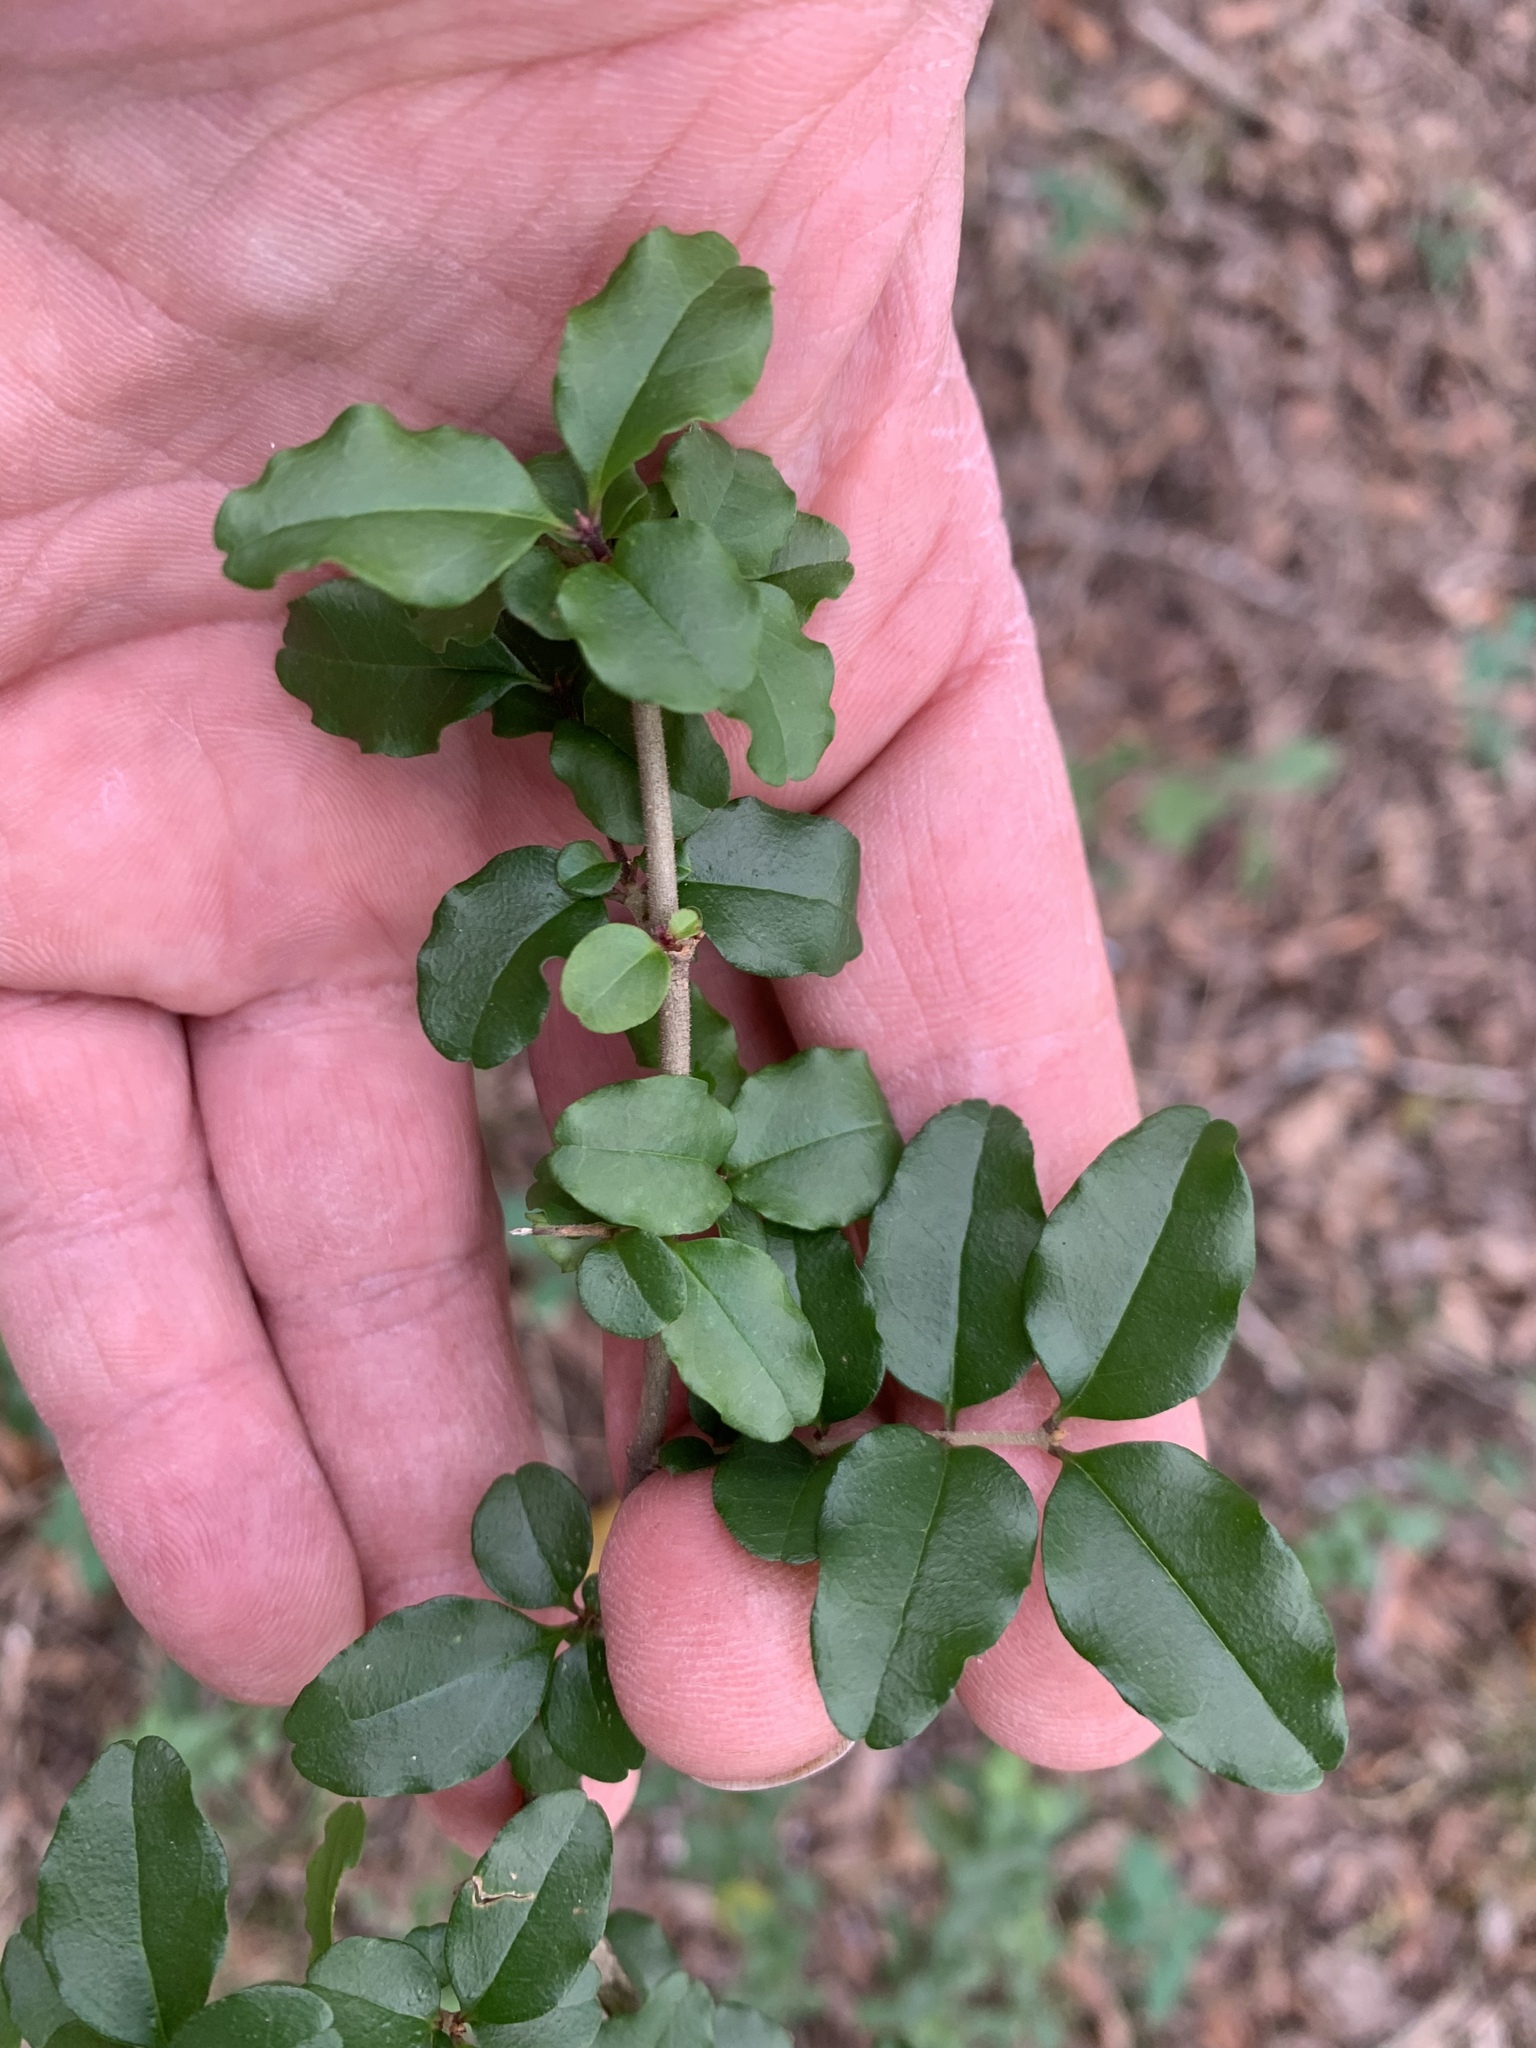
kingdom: Plantae
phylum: Tracheophyta
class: Magnoliopsida
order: Lamiales
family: Oleaceae
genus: Ligustrum
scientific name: Ligustrum sinense
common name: Chinese privet
